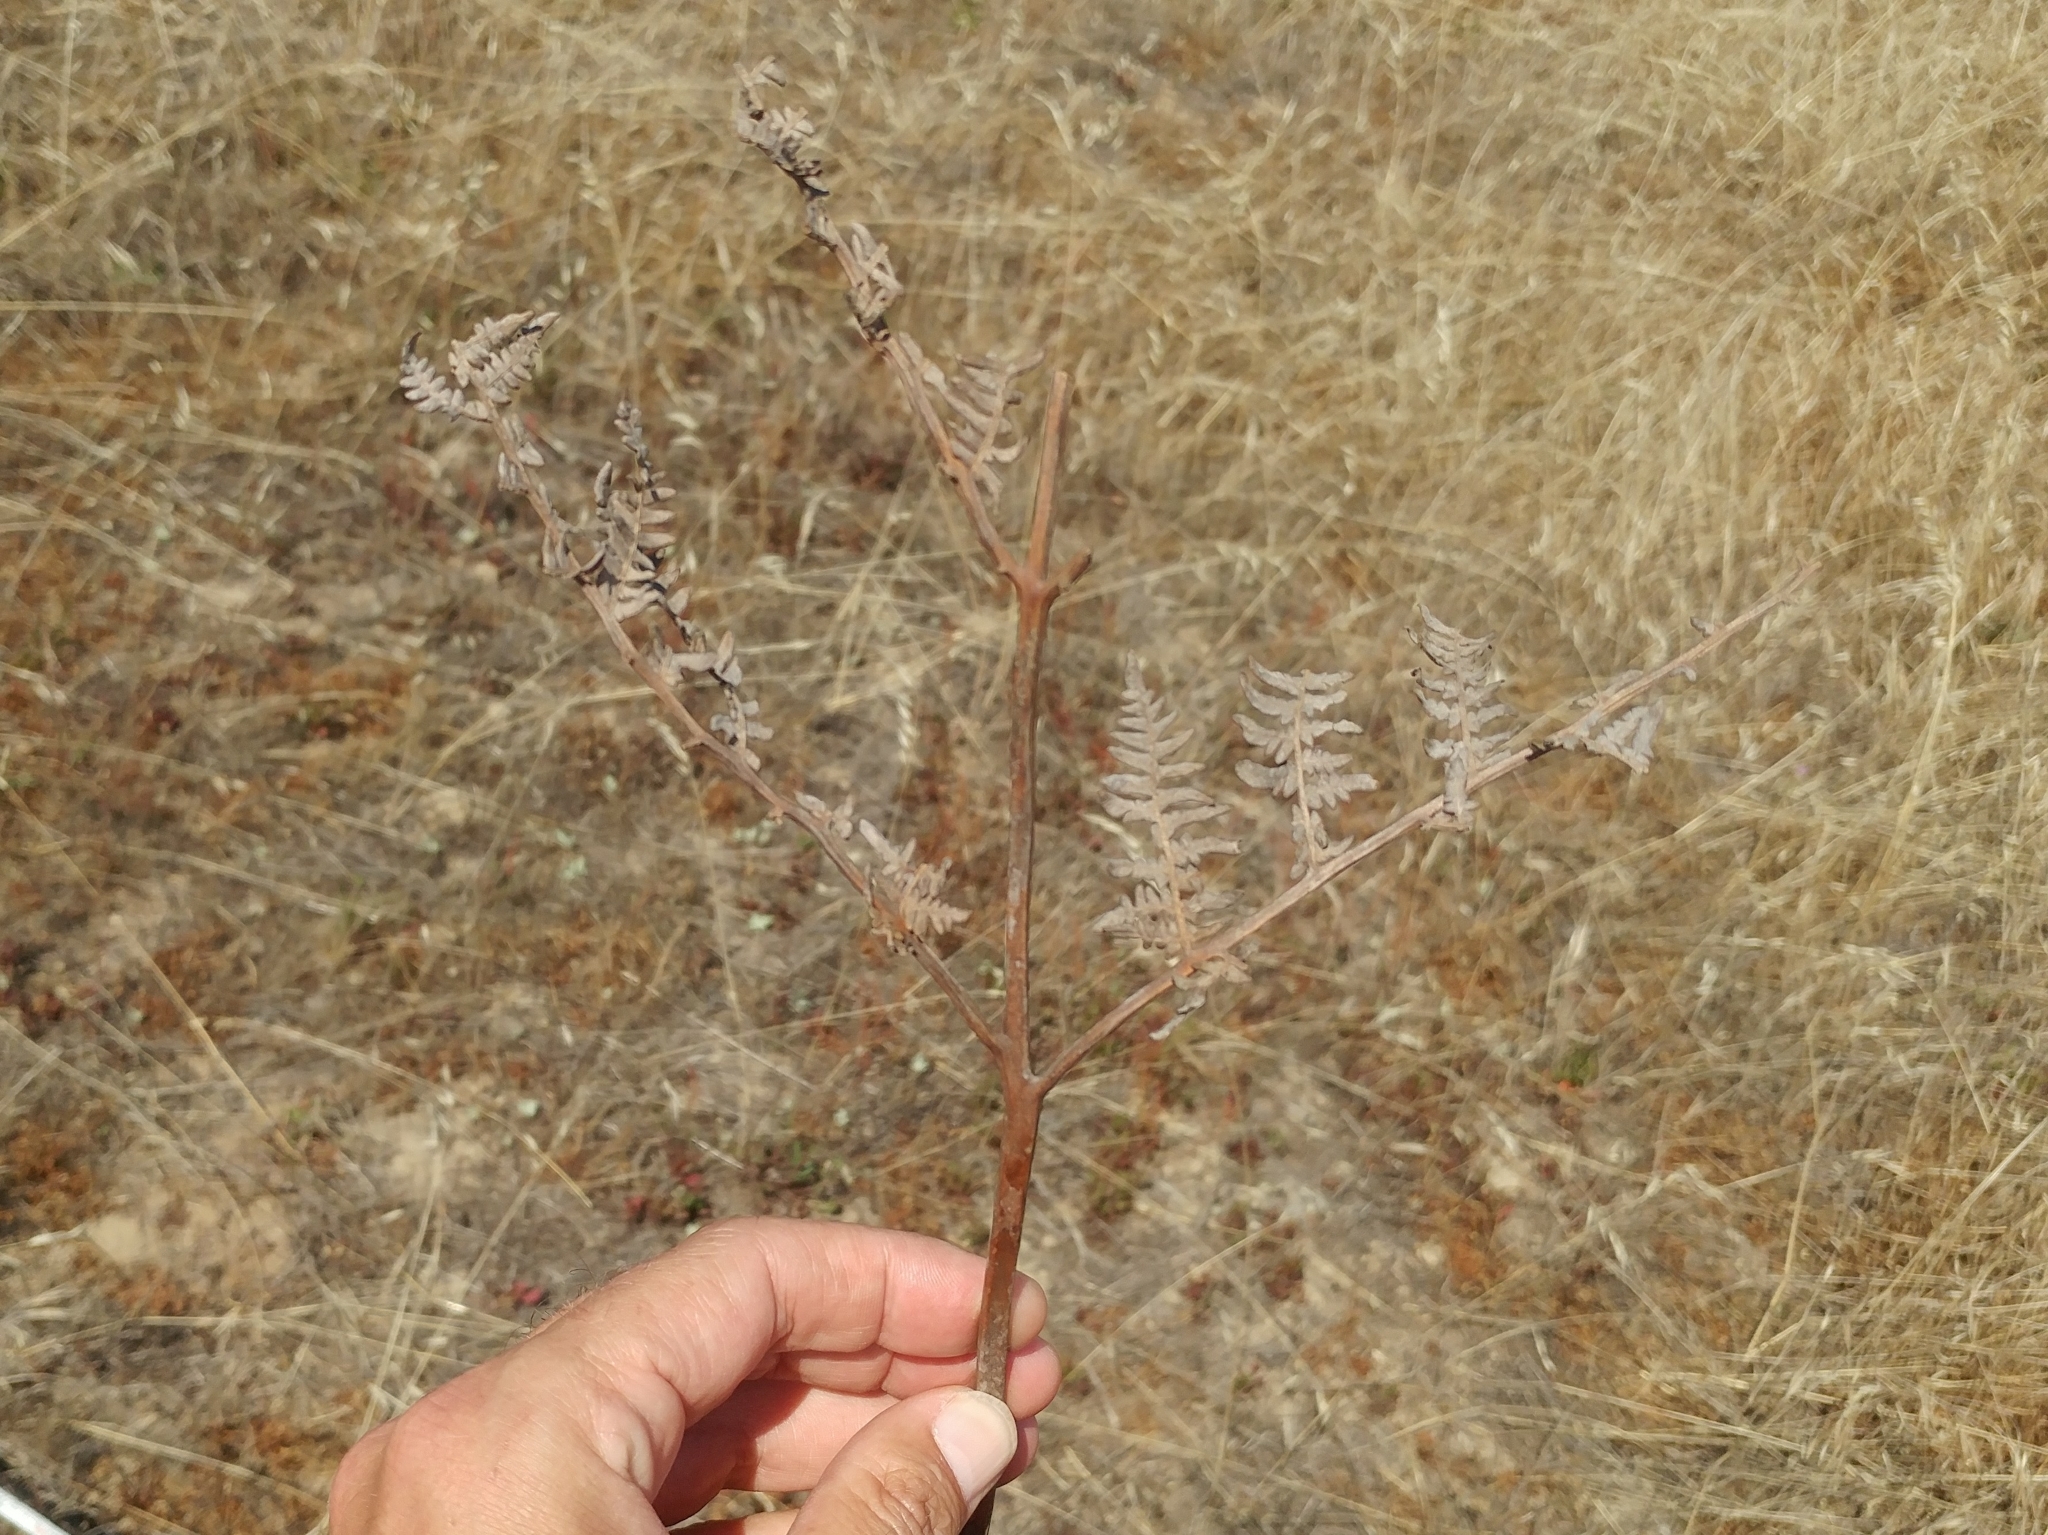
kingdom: Plantae
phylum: Tracheophyta
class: Polypodiopsida
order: Polypodiales
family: Dennstaedtiaceae
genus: Pteridium
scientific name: Pteridium aquilinum
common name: Bracken
